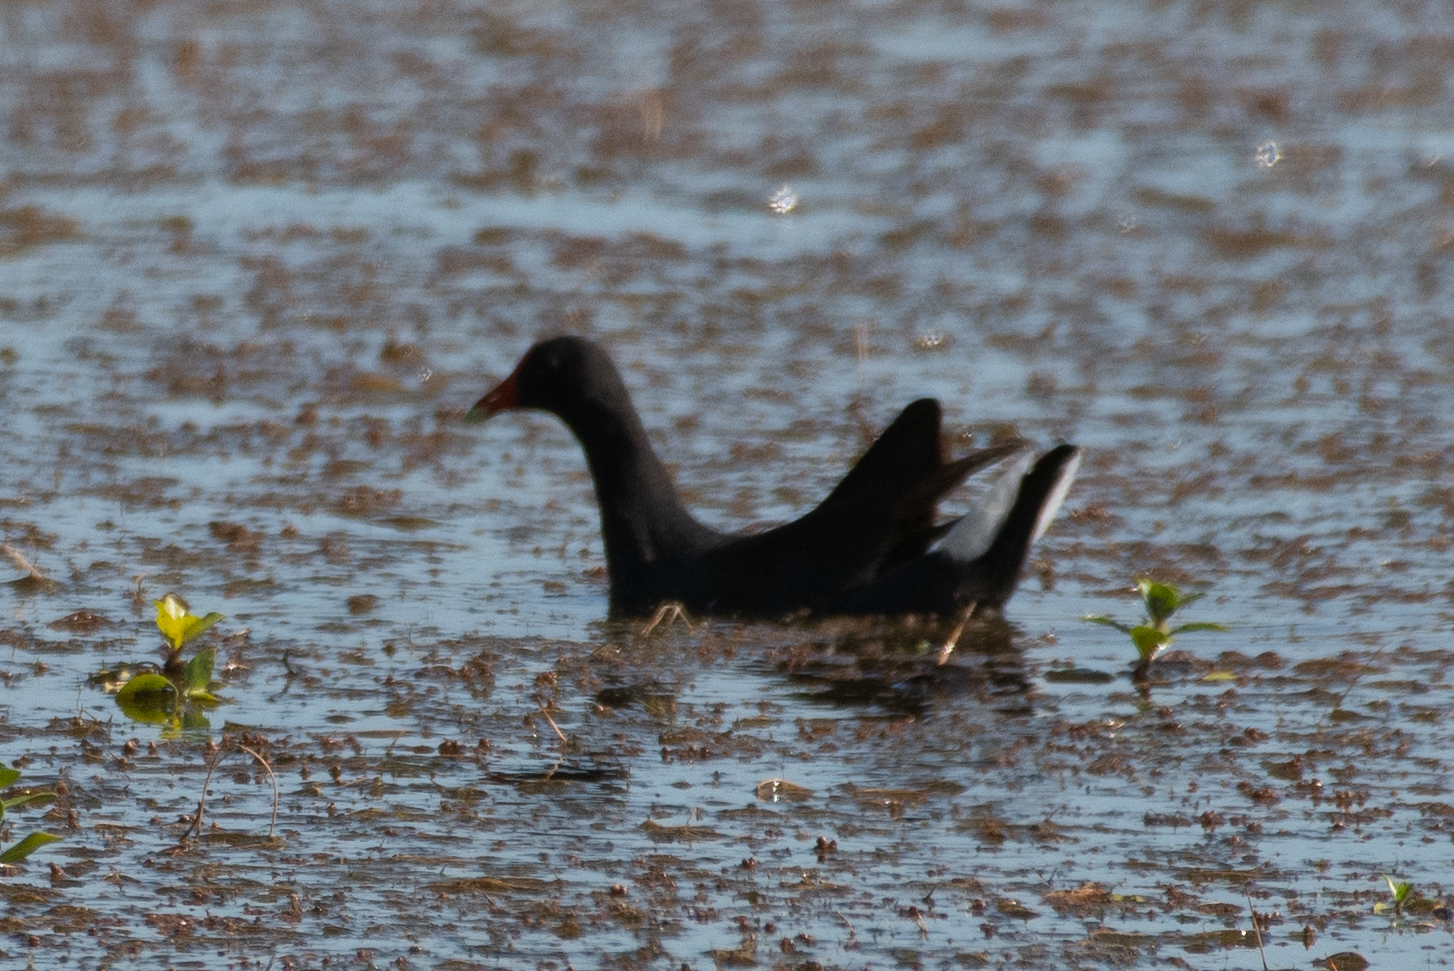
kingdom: Animalia
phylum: Chordata
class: Aves
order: Gruiformes
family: Rallidae
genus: Gallinula
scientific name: Gallinula chloropus
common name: Common moorhen
